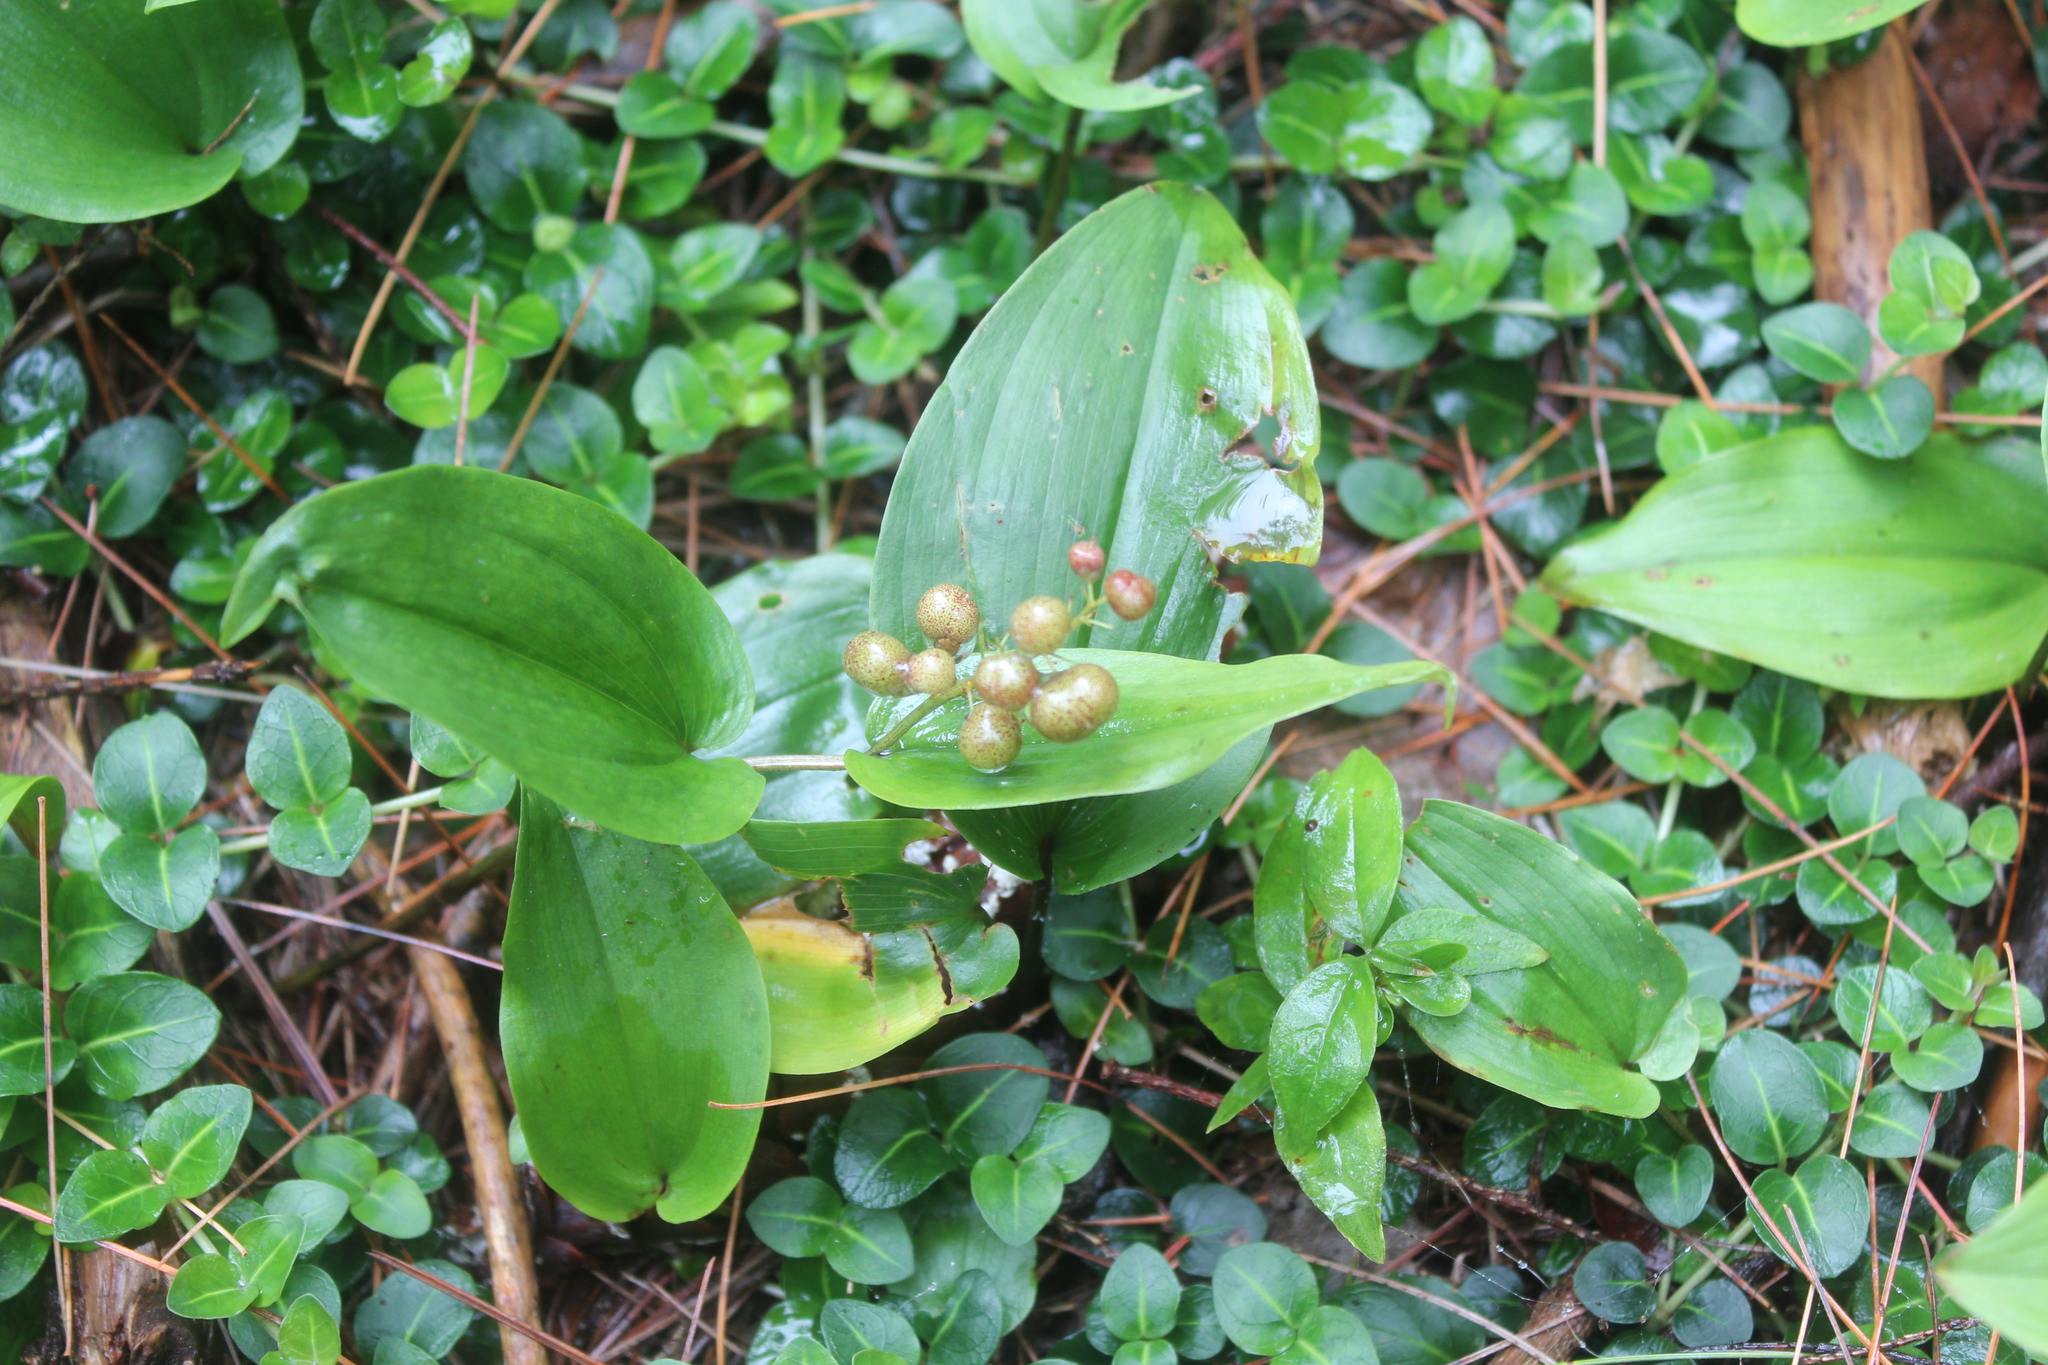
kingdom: Plantae
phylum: Tracheophyta
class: Liliopsida
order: Asparagales
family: Asparagaceae
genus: Maianthemum
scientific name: Maianthemum canadense
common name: False lily-of-the-valley
